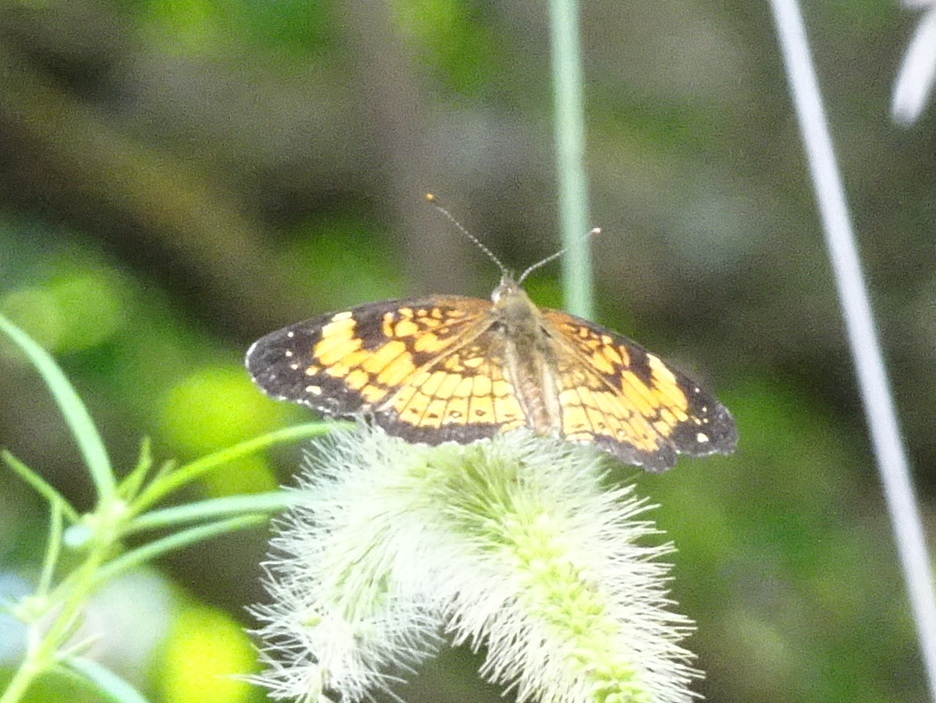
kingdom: Animalia
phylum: Arthropoda
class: Insecta
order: Lepidoptera
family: Nymphalidae
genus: Chlosyne
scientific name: Chlosyne nycteis
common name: Silvery checkerspot
